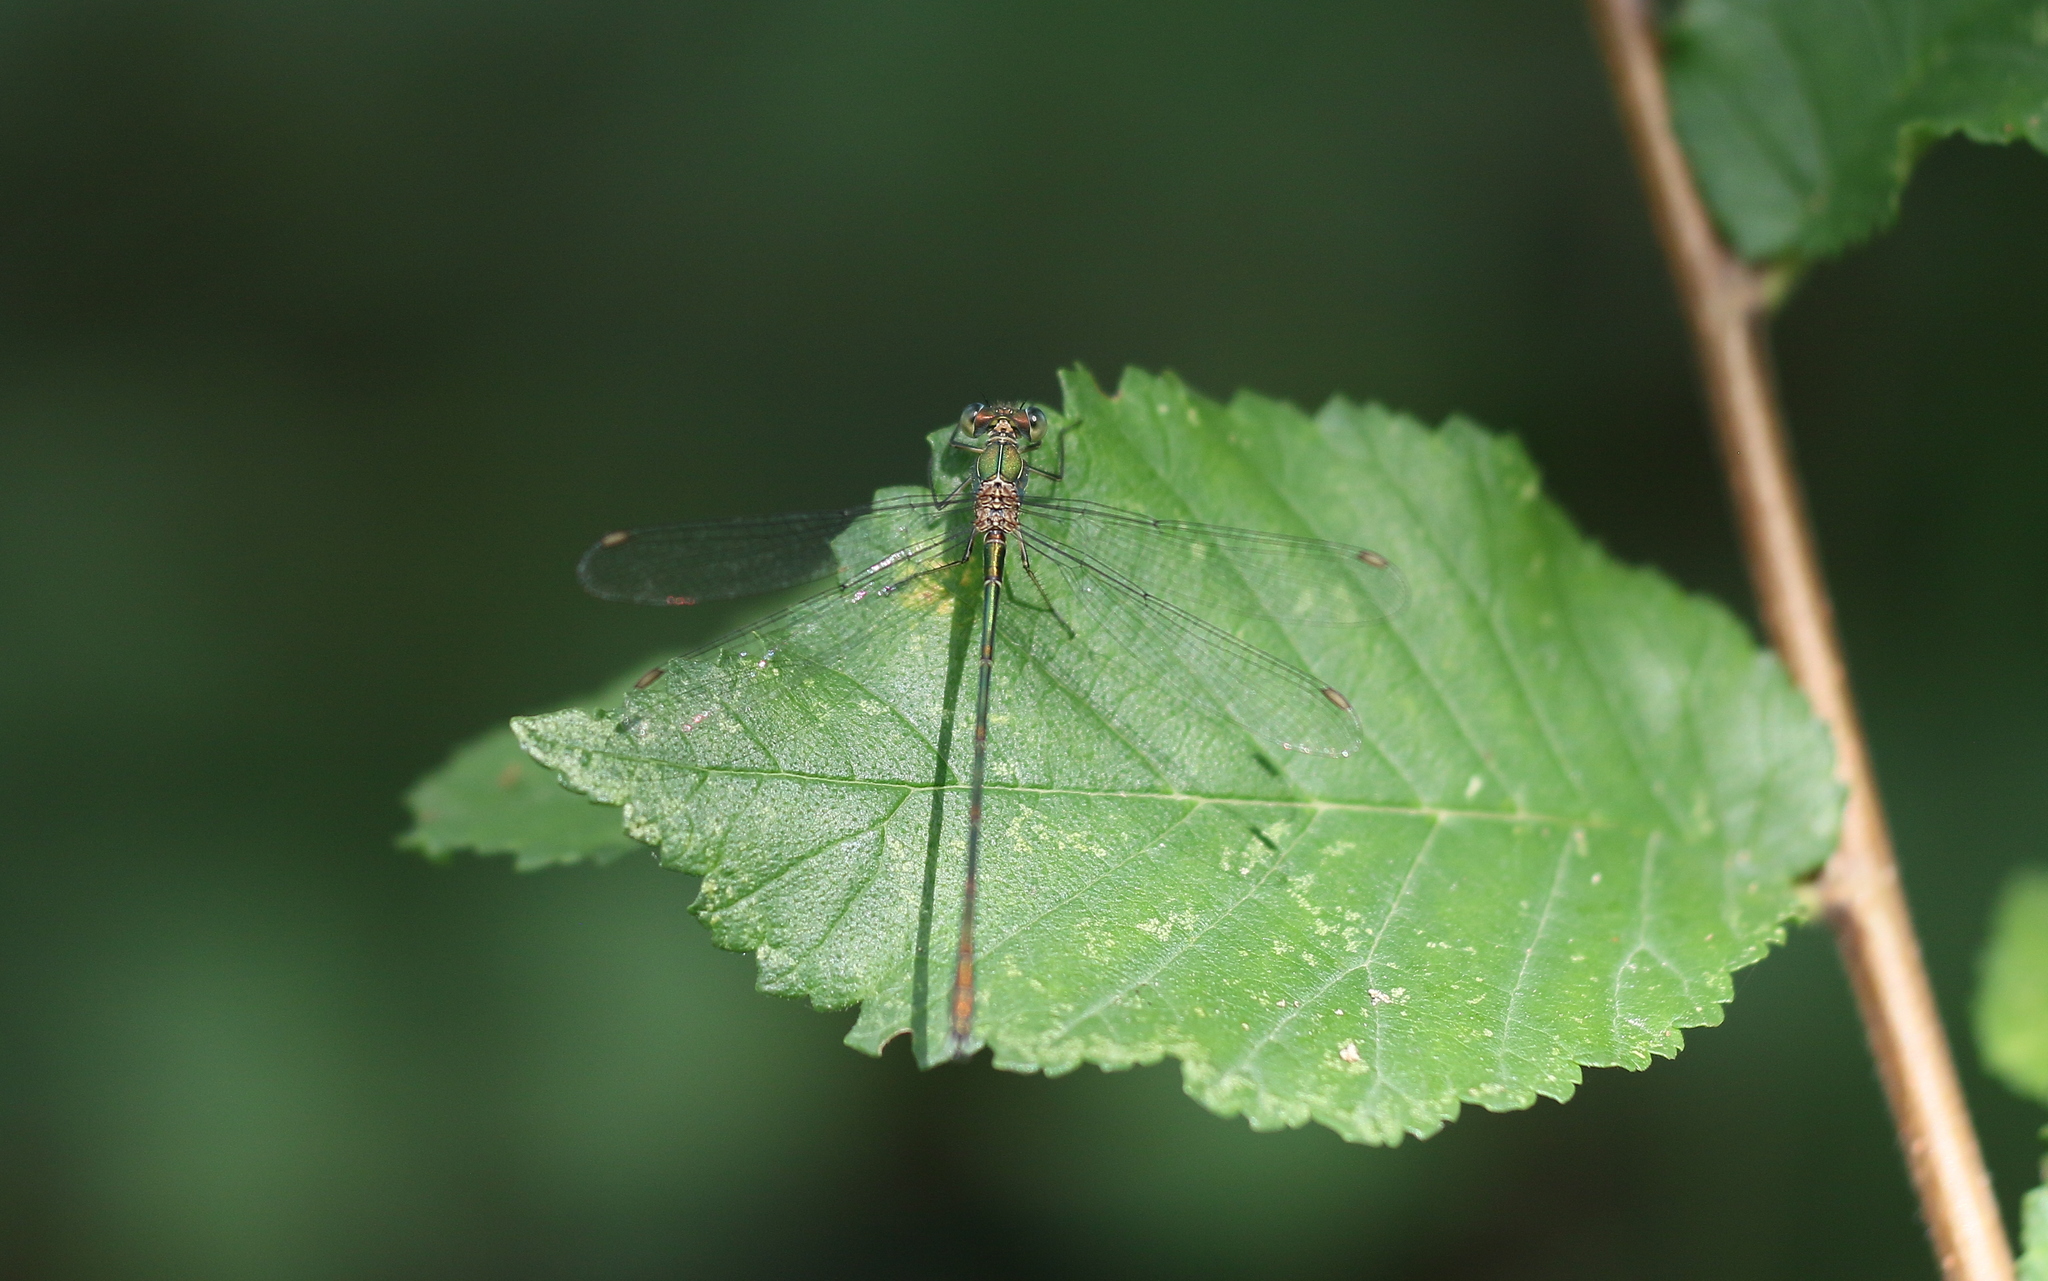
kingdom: Animalia
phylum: Arthropoda
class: Insecta
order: Odonata
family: Lestidae
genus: Chalcolestes
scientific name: Chalcolestes viridis
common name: Green emerald damselfly
